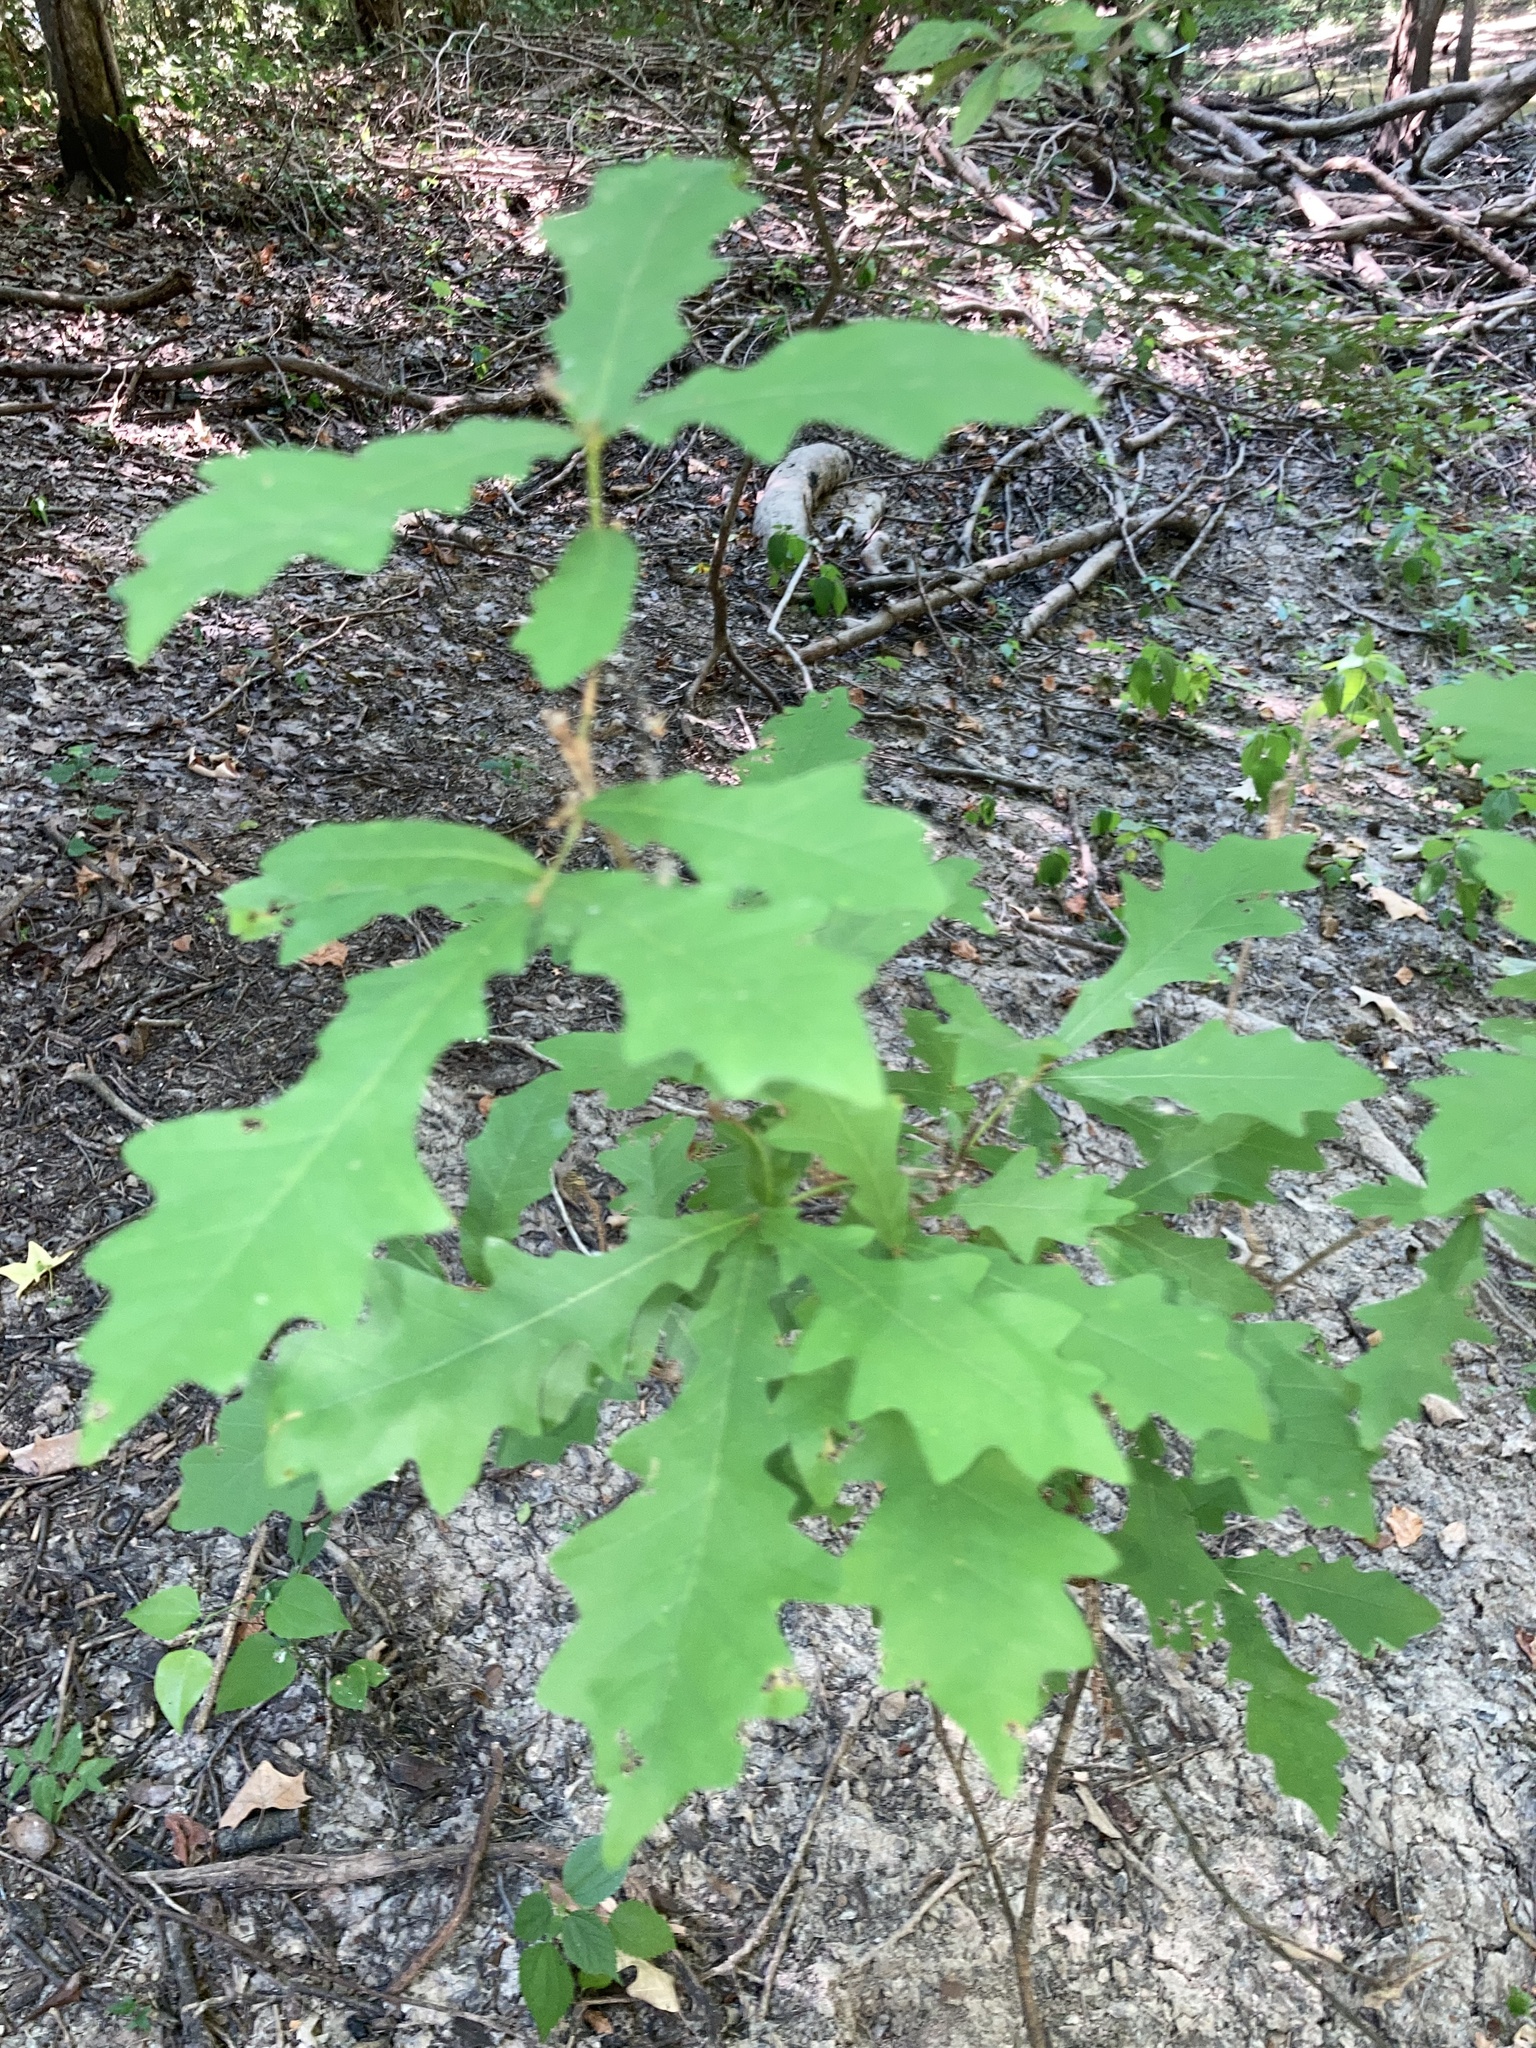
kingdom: Plantae
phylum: Tracheophyta
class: Magnoliopsida
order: Fagales
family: Fagaceae
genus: Quercus
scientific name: Quercus lyrata
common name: Overcup oak
